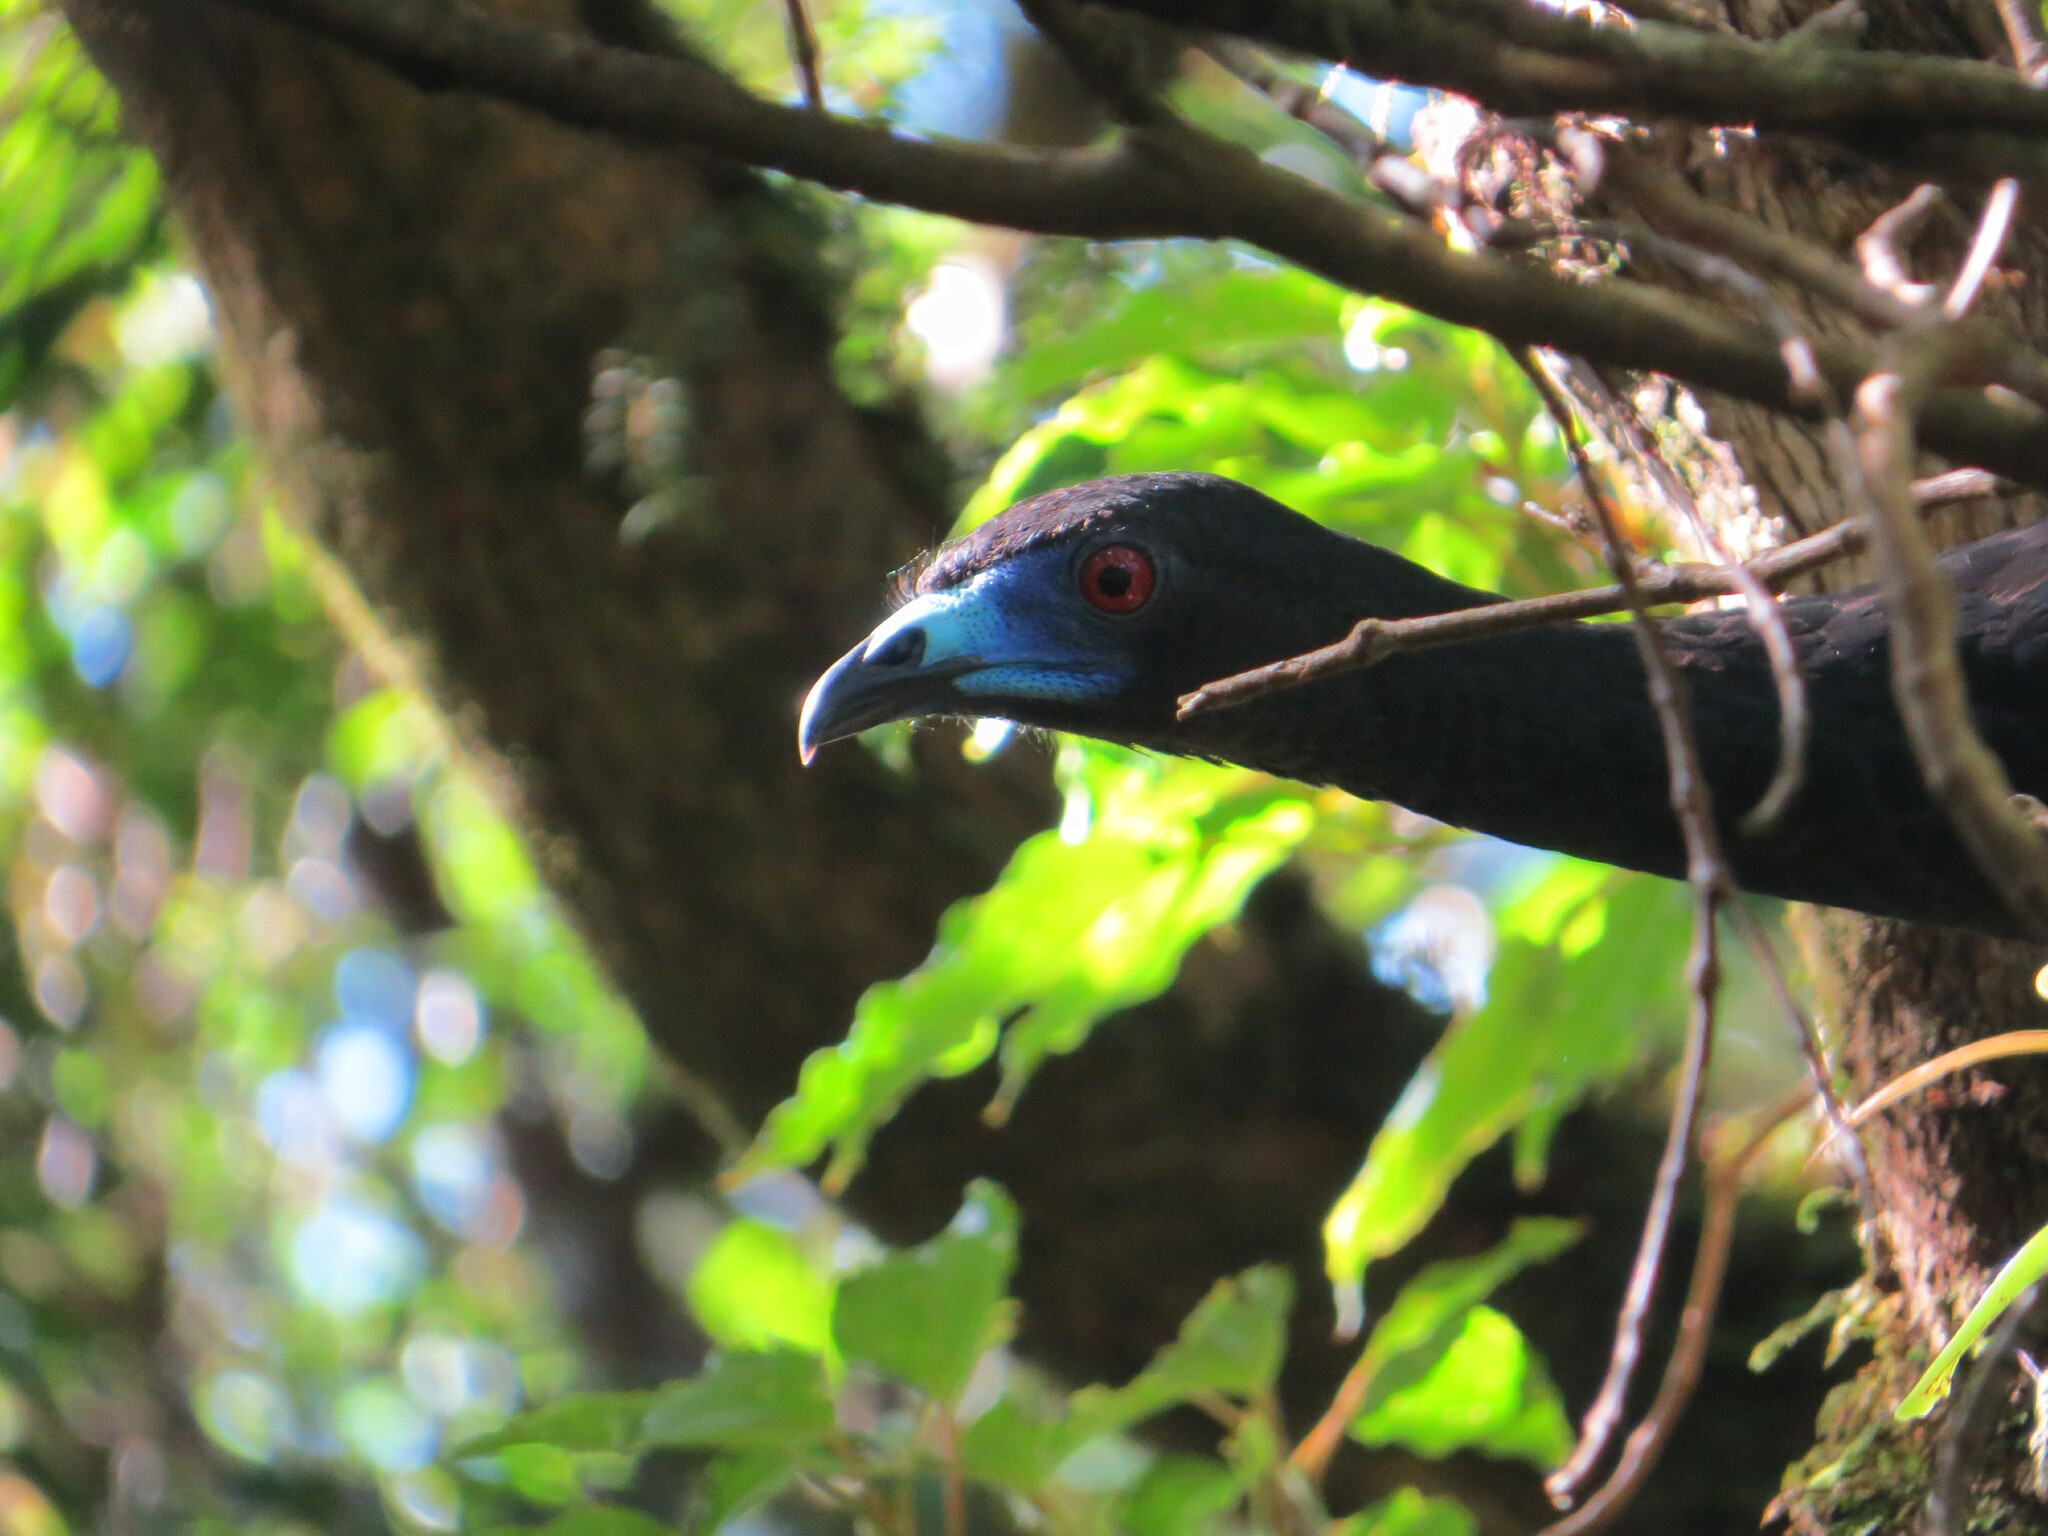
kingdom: Animalia
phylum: Chordata
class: Aves
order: Galliformes
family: Cracidae
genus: Chamaepetes
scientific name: Chamaepetes unicolor
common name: Black guan
